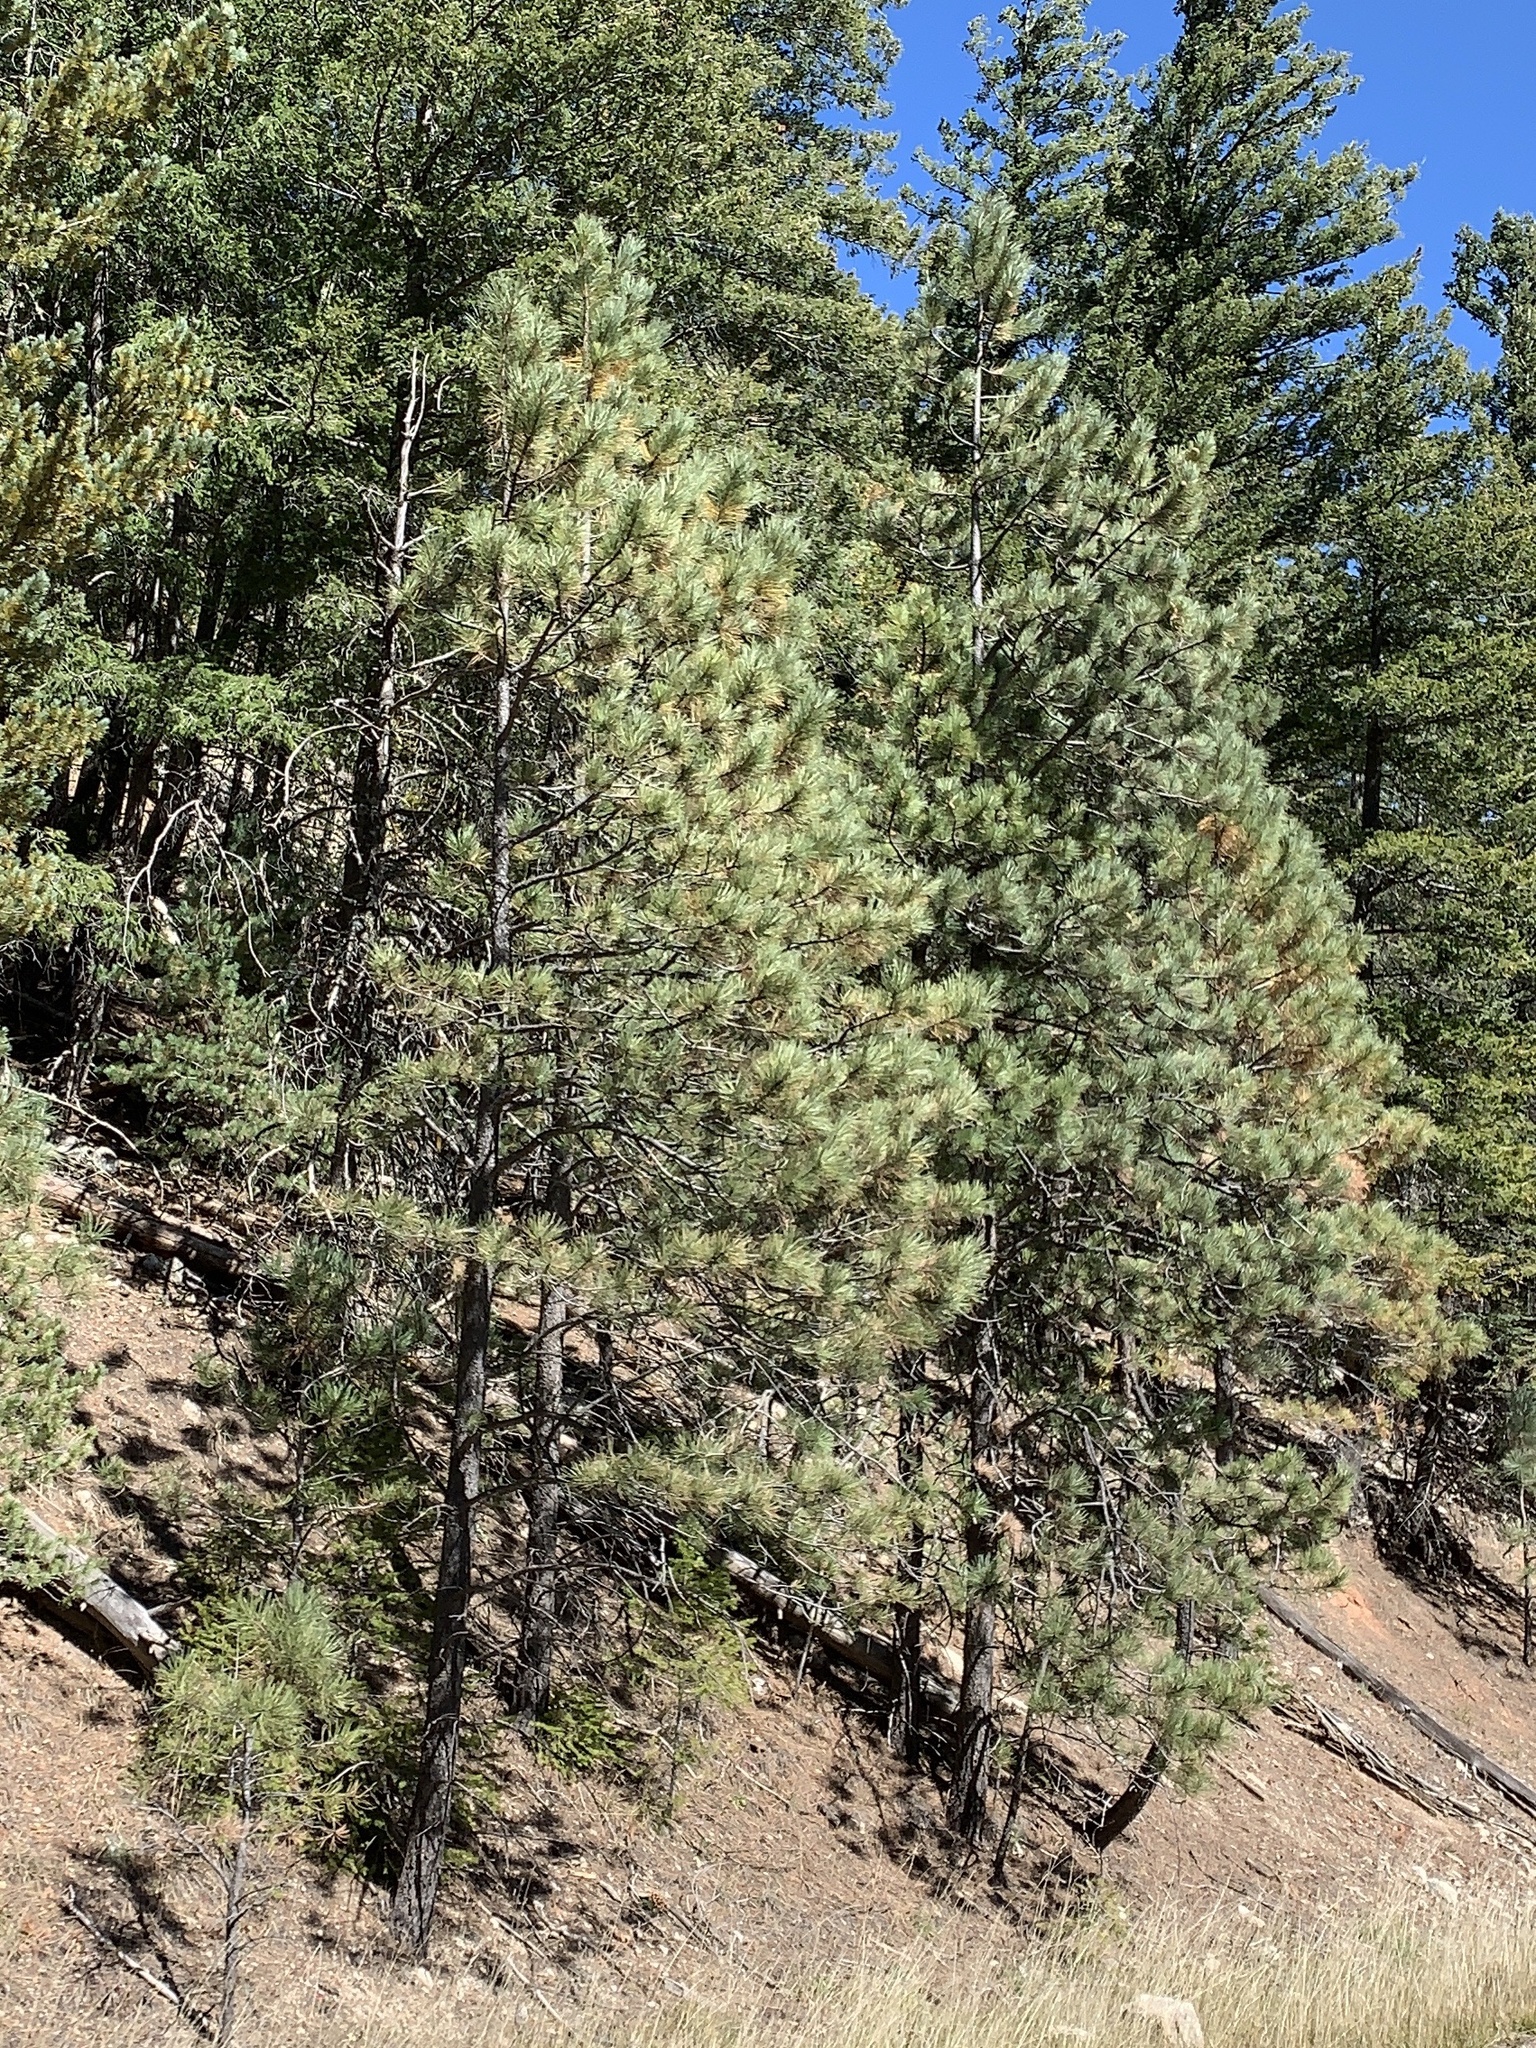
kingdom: Plantae
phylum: Tracheophyta
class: Pinopsida
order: Pinales
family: Pinaceae
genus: Pinus
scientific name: Pinus ponderosa
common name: Western yellow-pine
